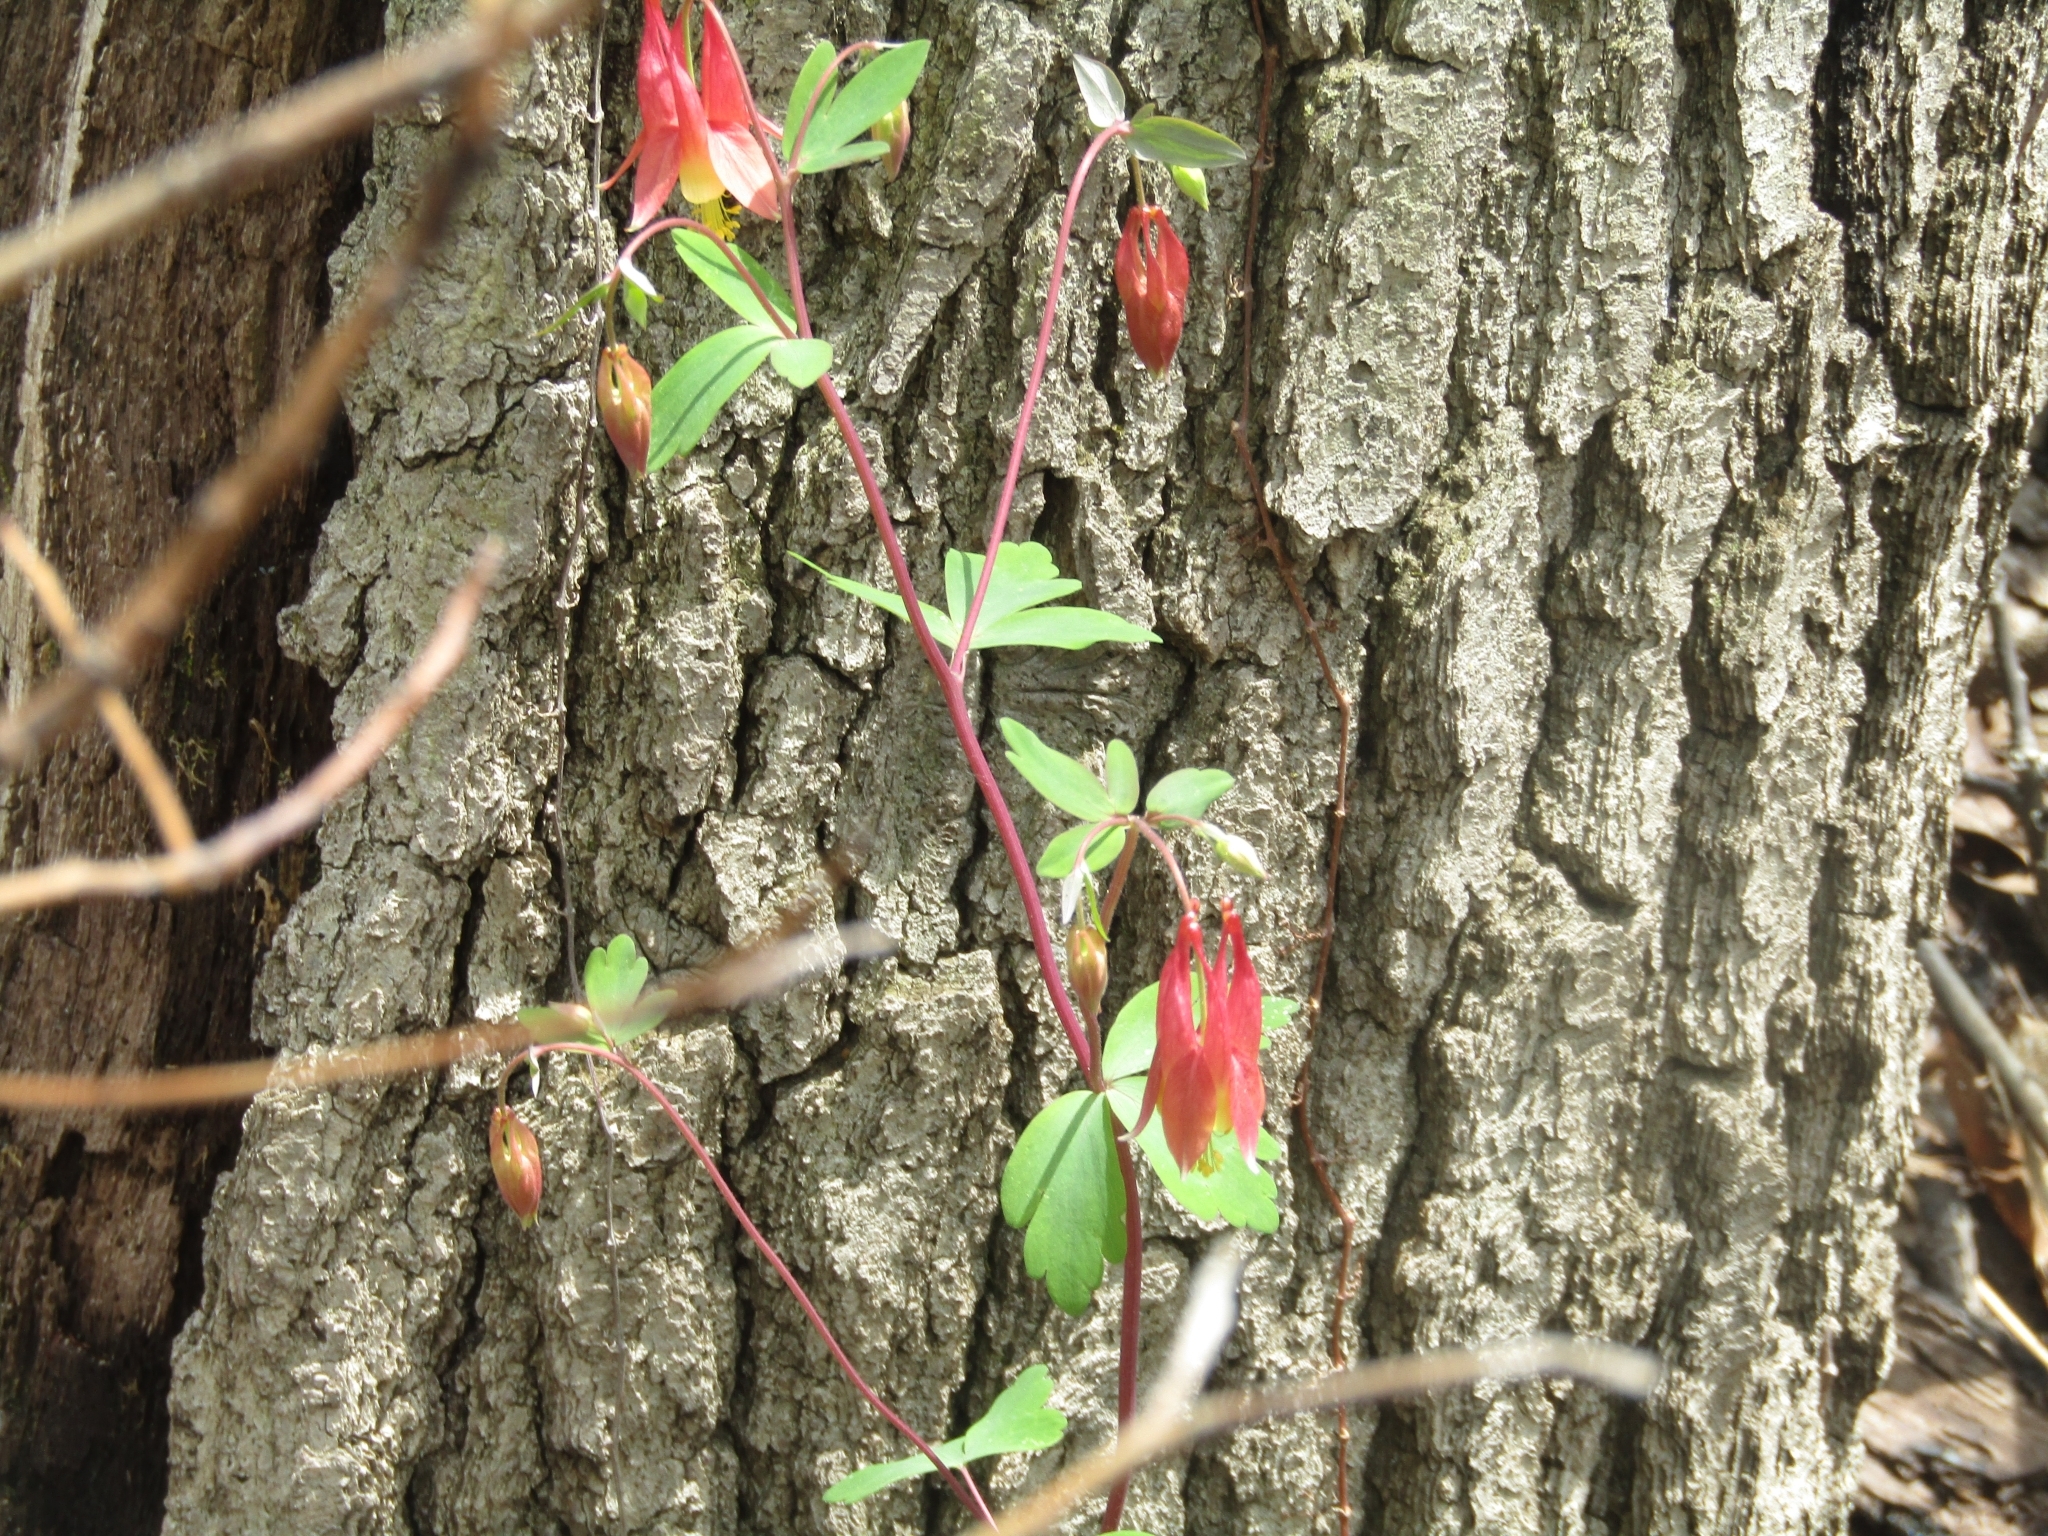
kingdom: Plantae
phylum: Tracheophyta
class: Magnoliopsida
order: Ranunculales
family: Ranunculaceae
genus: Aquilegia
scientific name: Aquilegia canadensis
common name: American columbine
